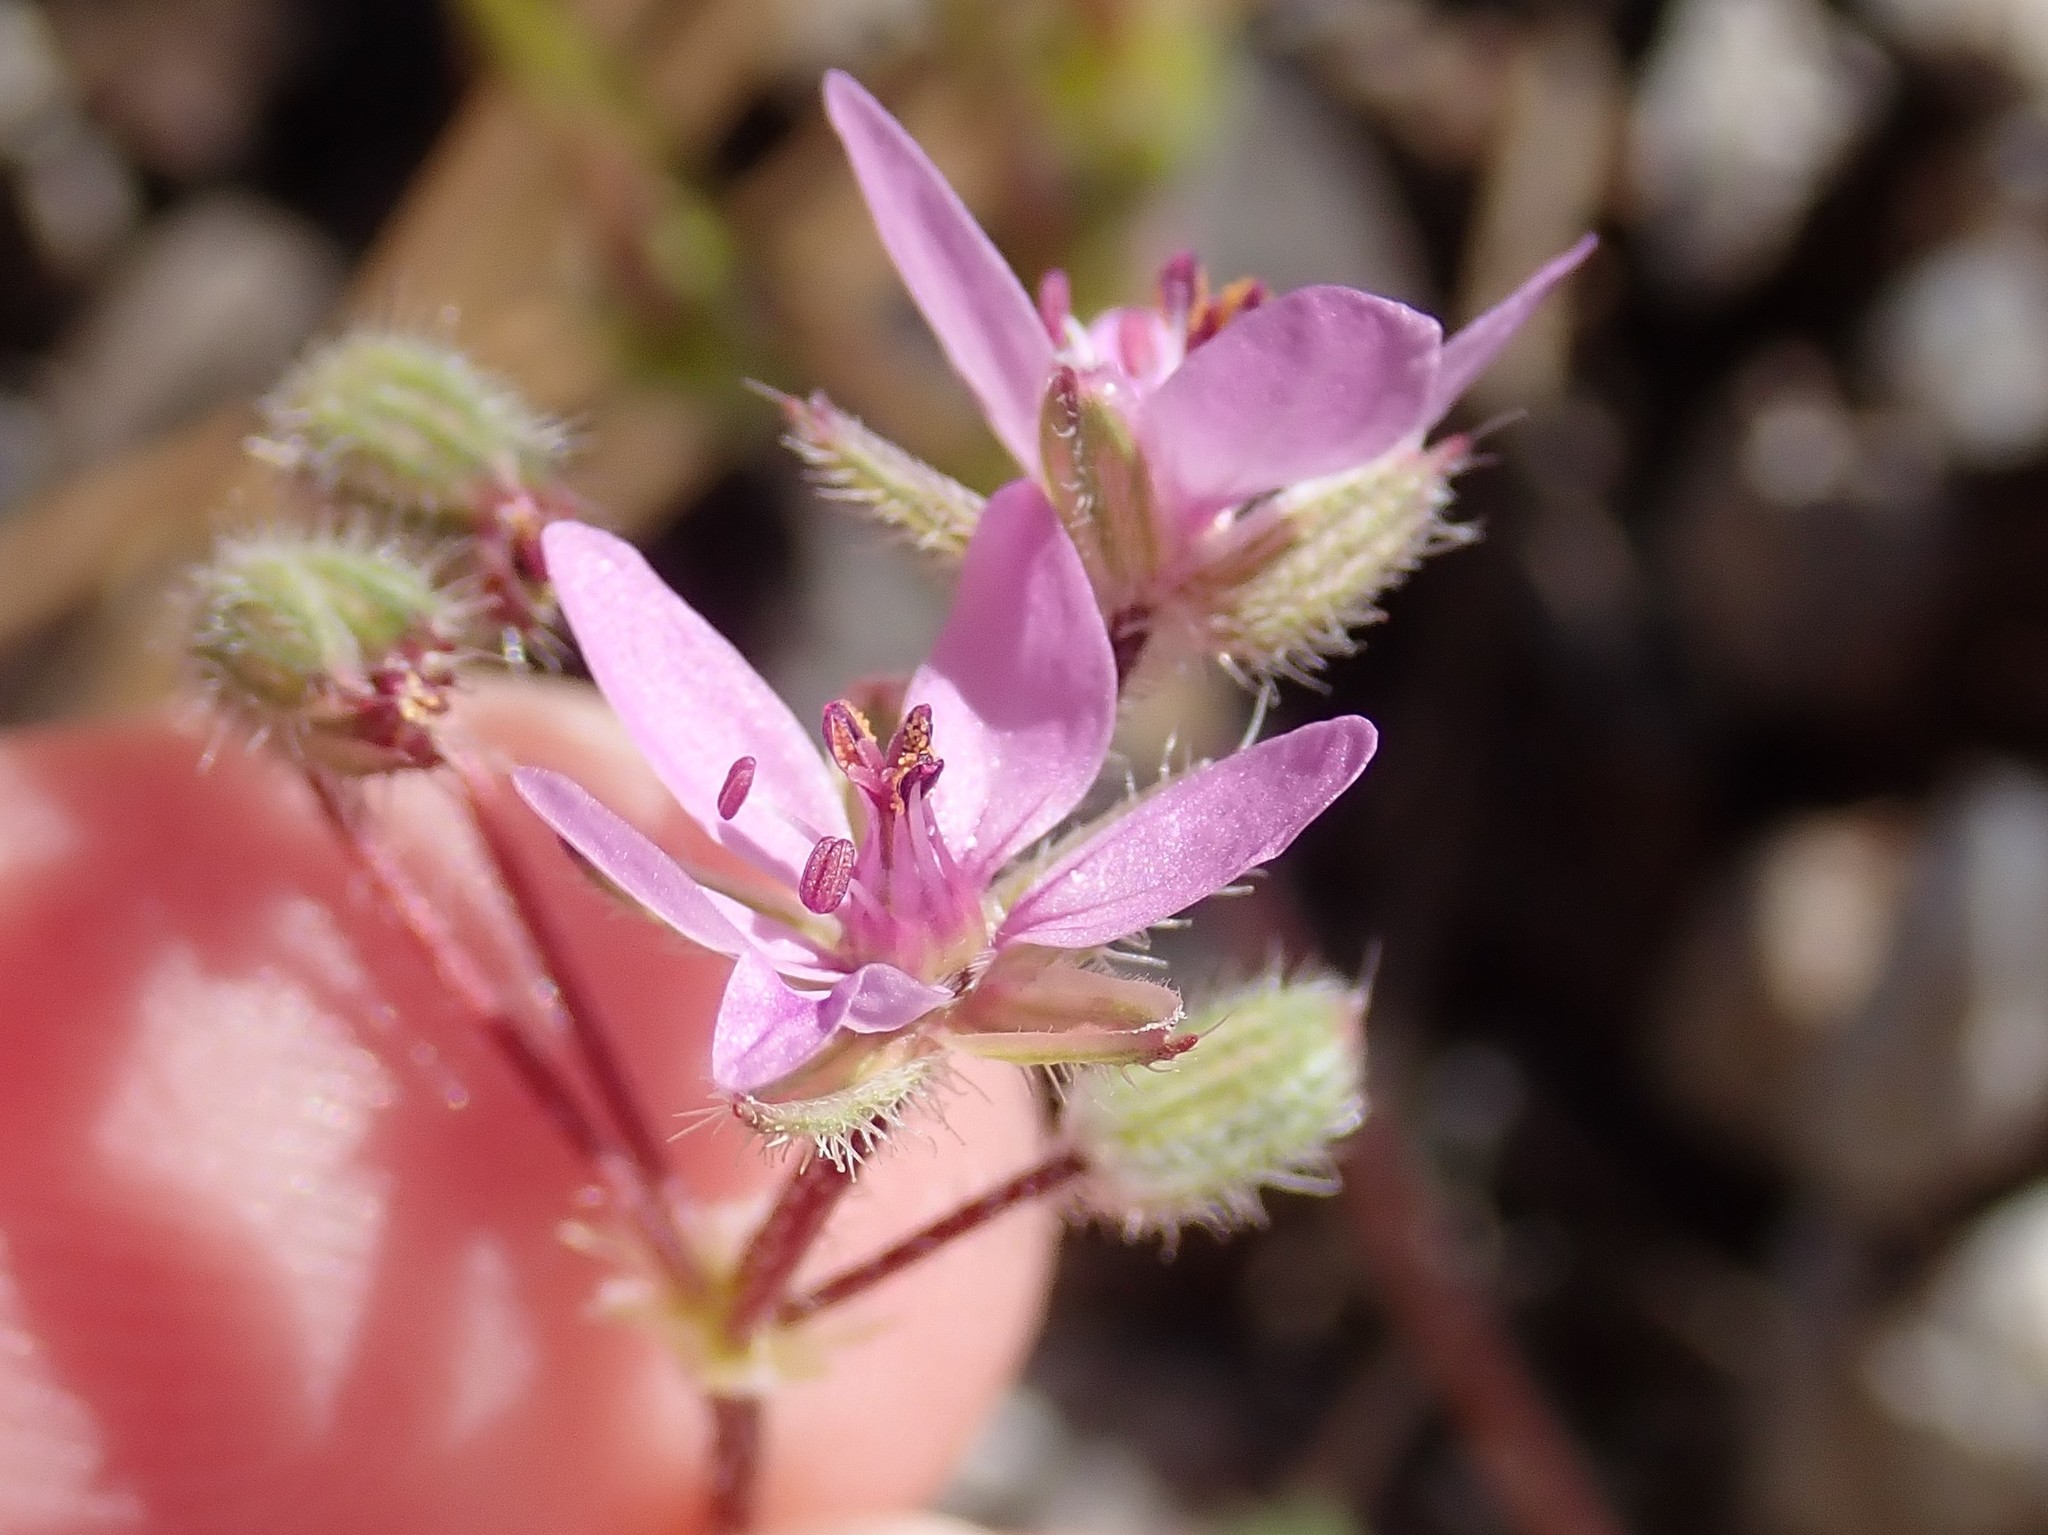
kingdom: Plantae
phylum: Tracheophyta
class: Magnoliopsida
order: Geraniales
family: Geraniaceae
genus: Erodium
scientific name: Erodium cicutarium
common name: Common stork's-bill
